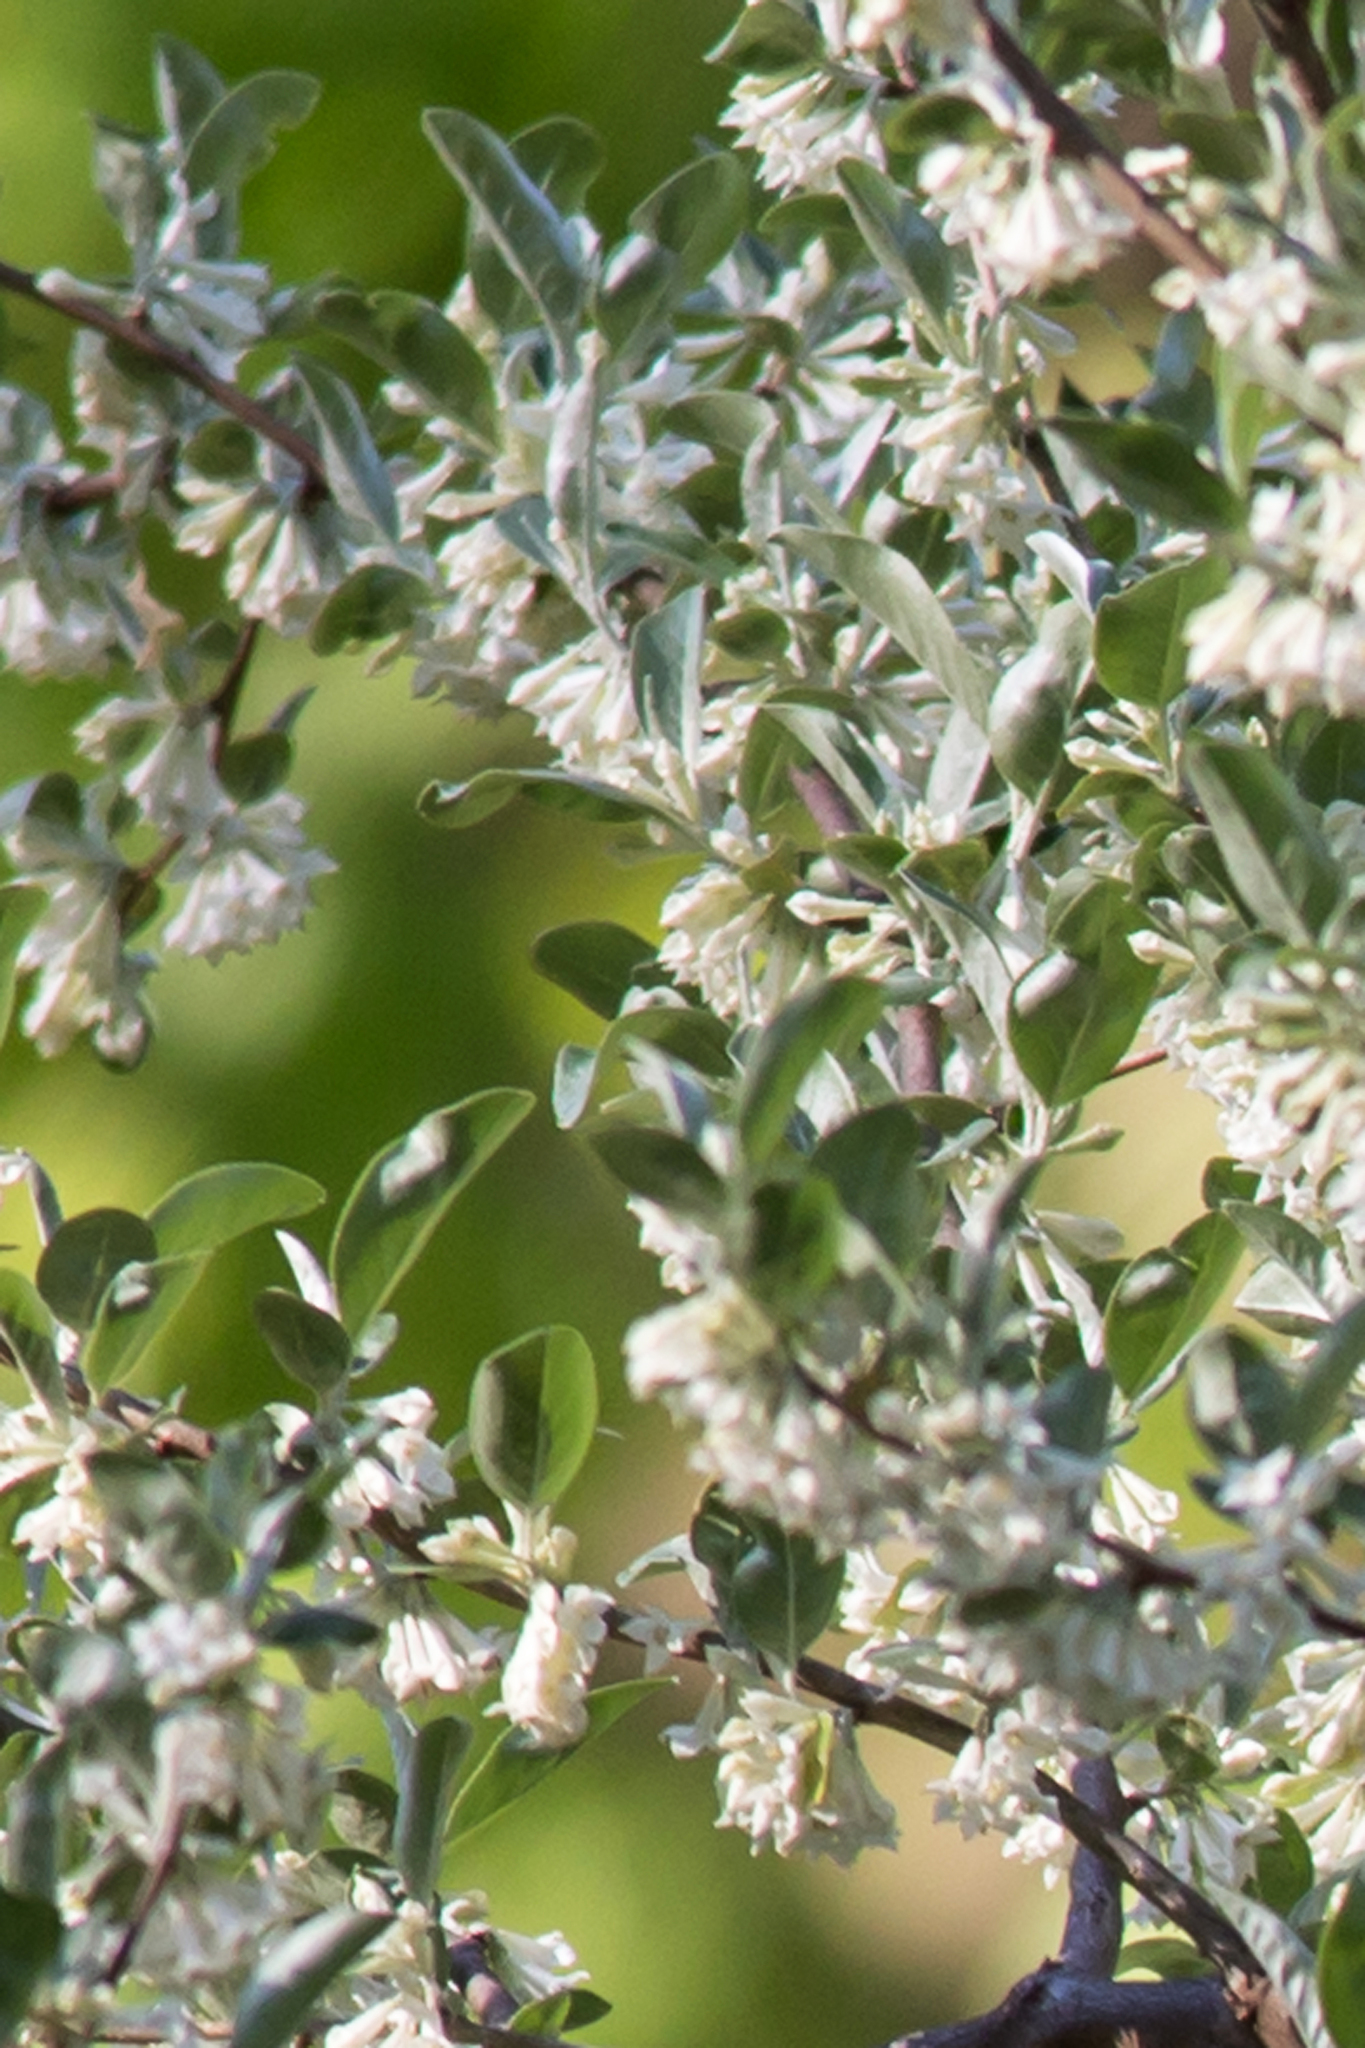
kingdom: Plantae
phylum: Tracheophyta
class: Magnoliopsida
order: Rosales
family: Elaeagnaceae
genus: Elaeagnus
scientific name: Elaeagnus umbellata
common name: Autumn olive
